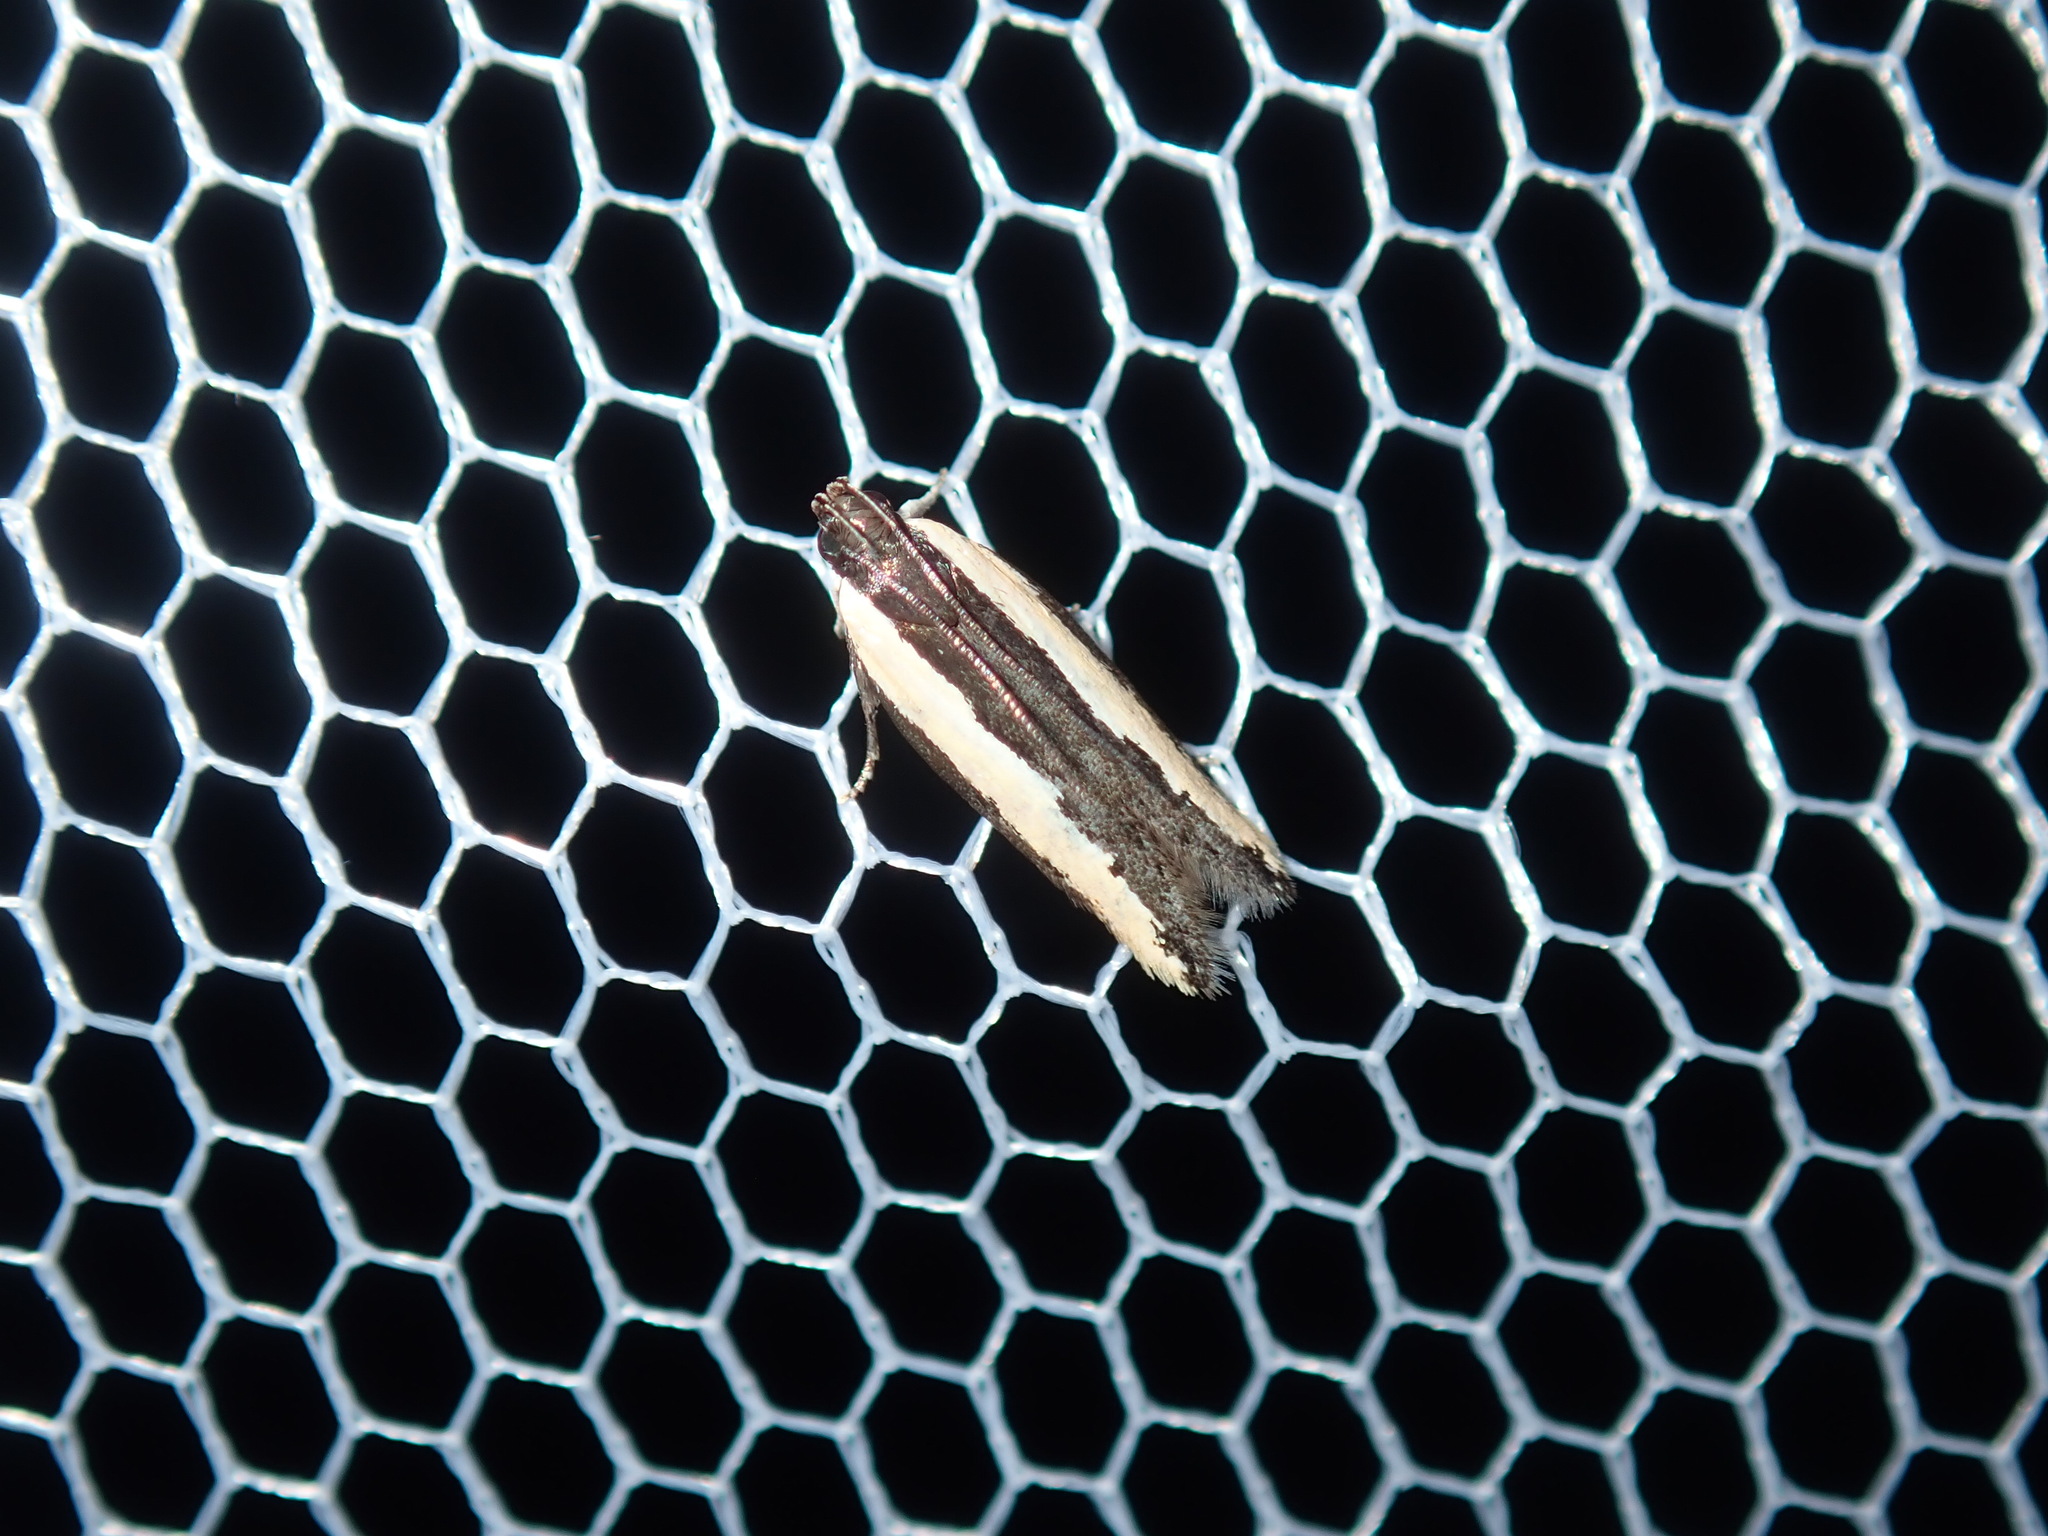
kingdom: Animalia
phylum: Arthropoda
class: Insecta
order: Lepidoptera
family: Gelechiidae
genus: Ardozyga
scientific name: Ardozyga stratifera
